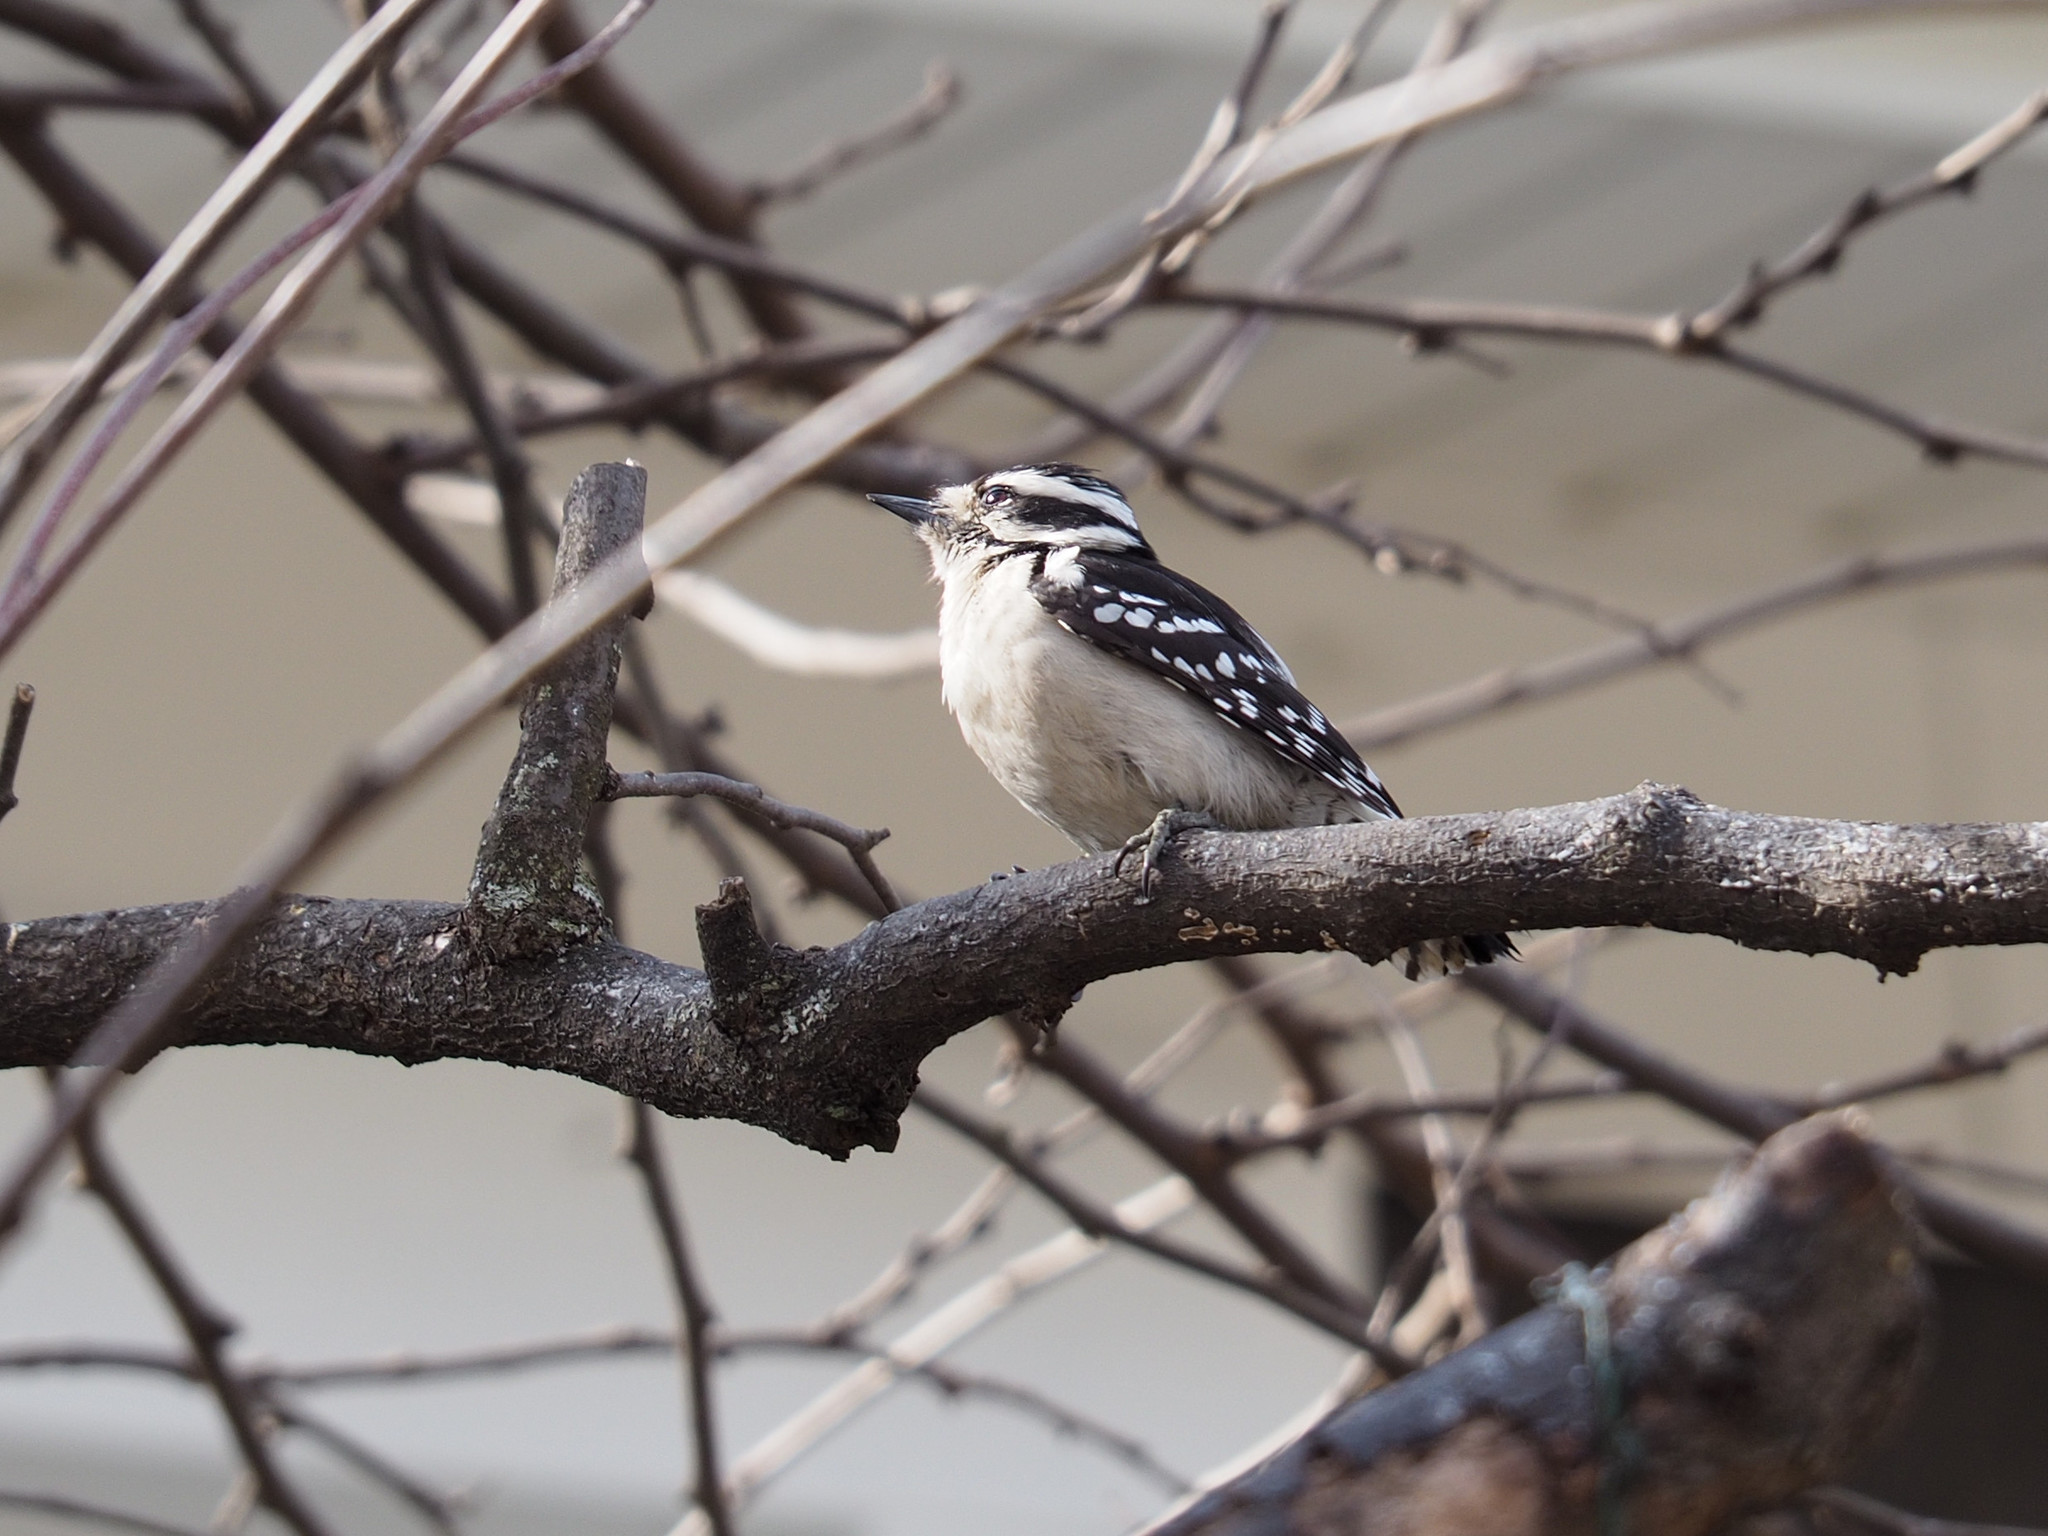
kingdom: Animalia
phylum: Chordata
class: Aves
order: Piciformes
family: Picidae
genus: Dryobates
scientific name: Dryobates pubescens
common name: Downy woodpecker
